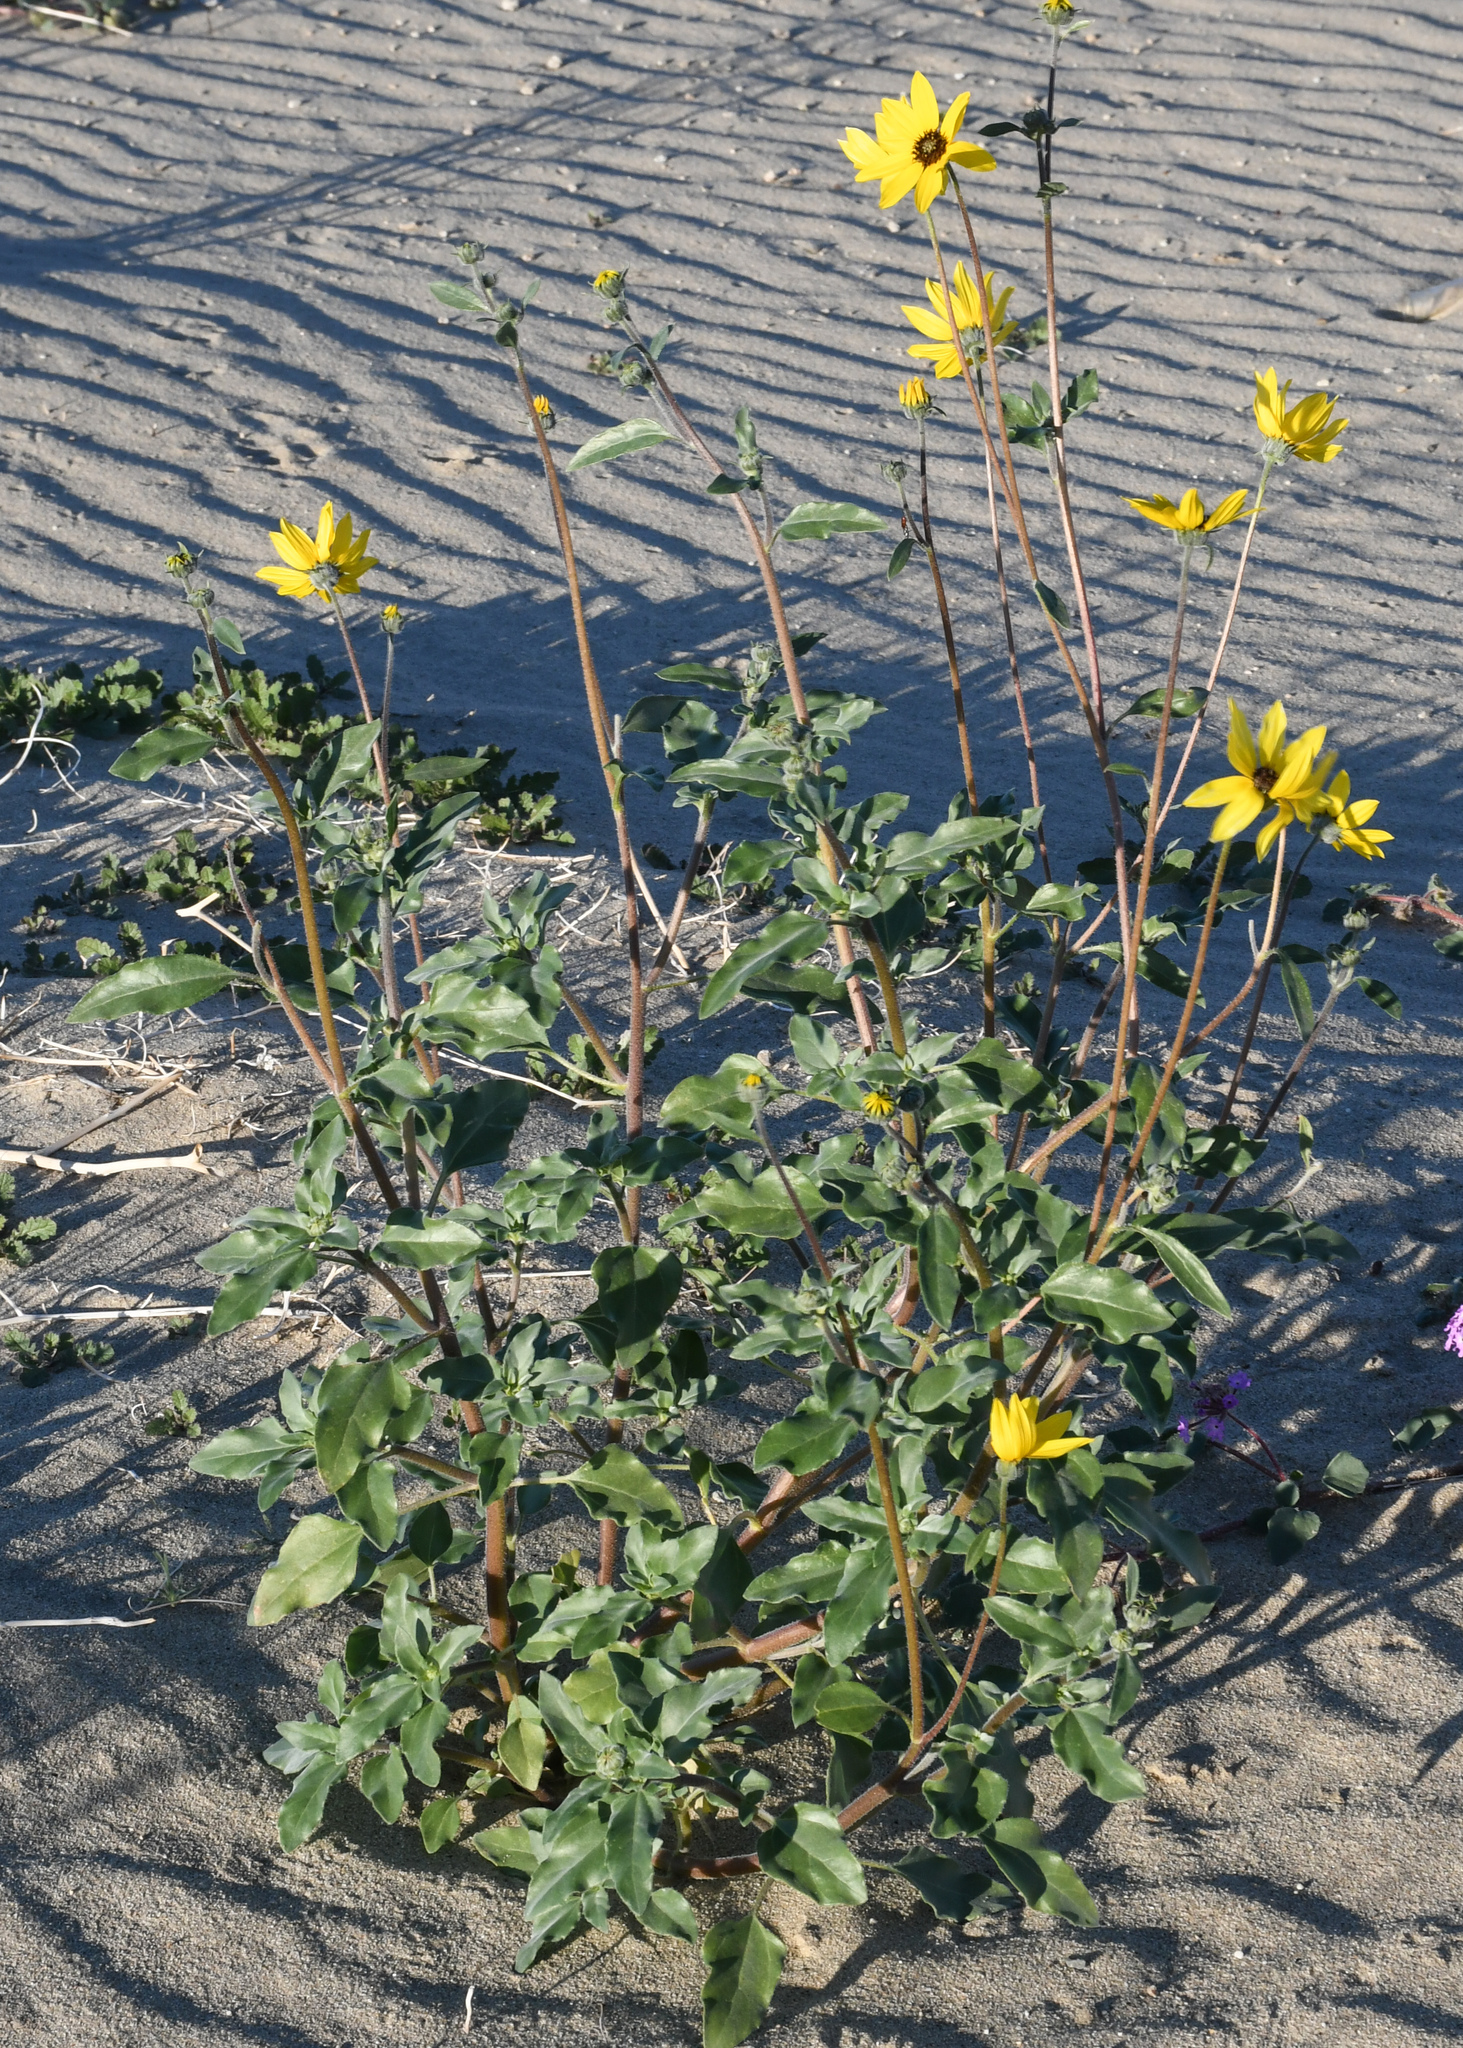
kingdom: Plantae
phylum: Tracheophyta
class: Magnoliopsida
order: Asterales
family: Asteraceae
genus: Helianthus
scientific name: Helianthus petiolaris
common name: Lesser sunflower
